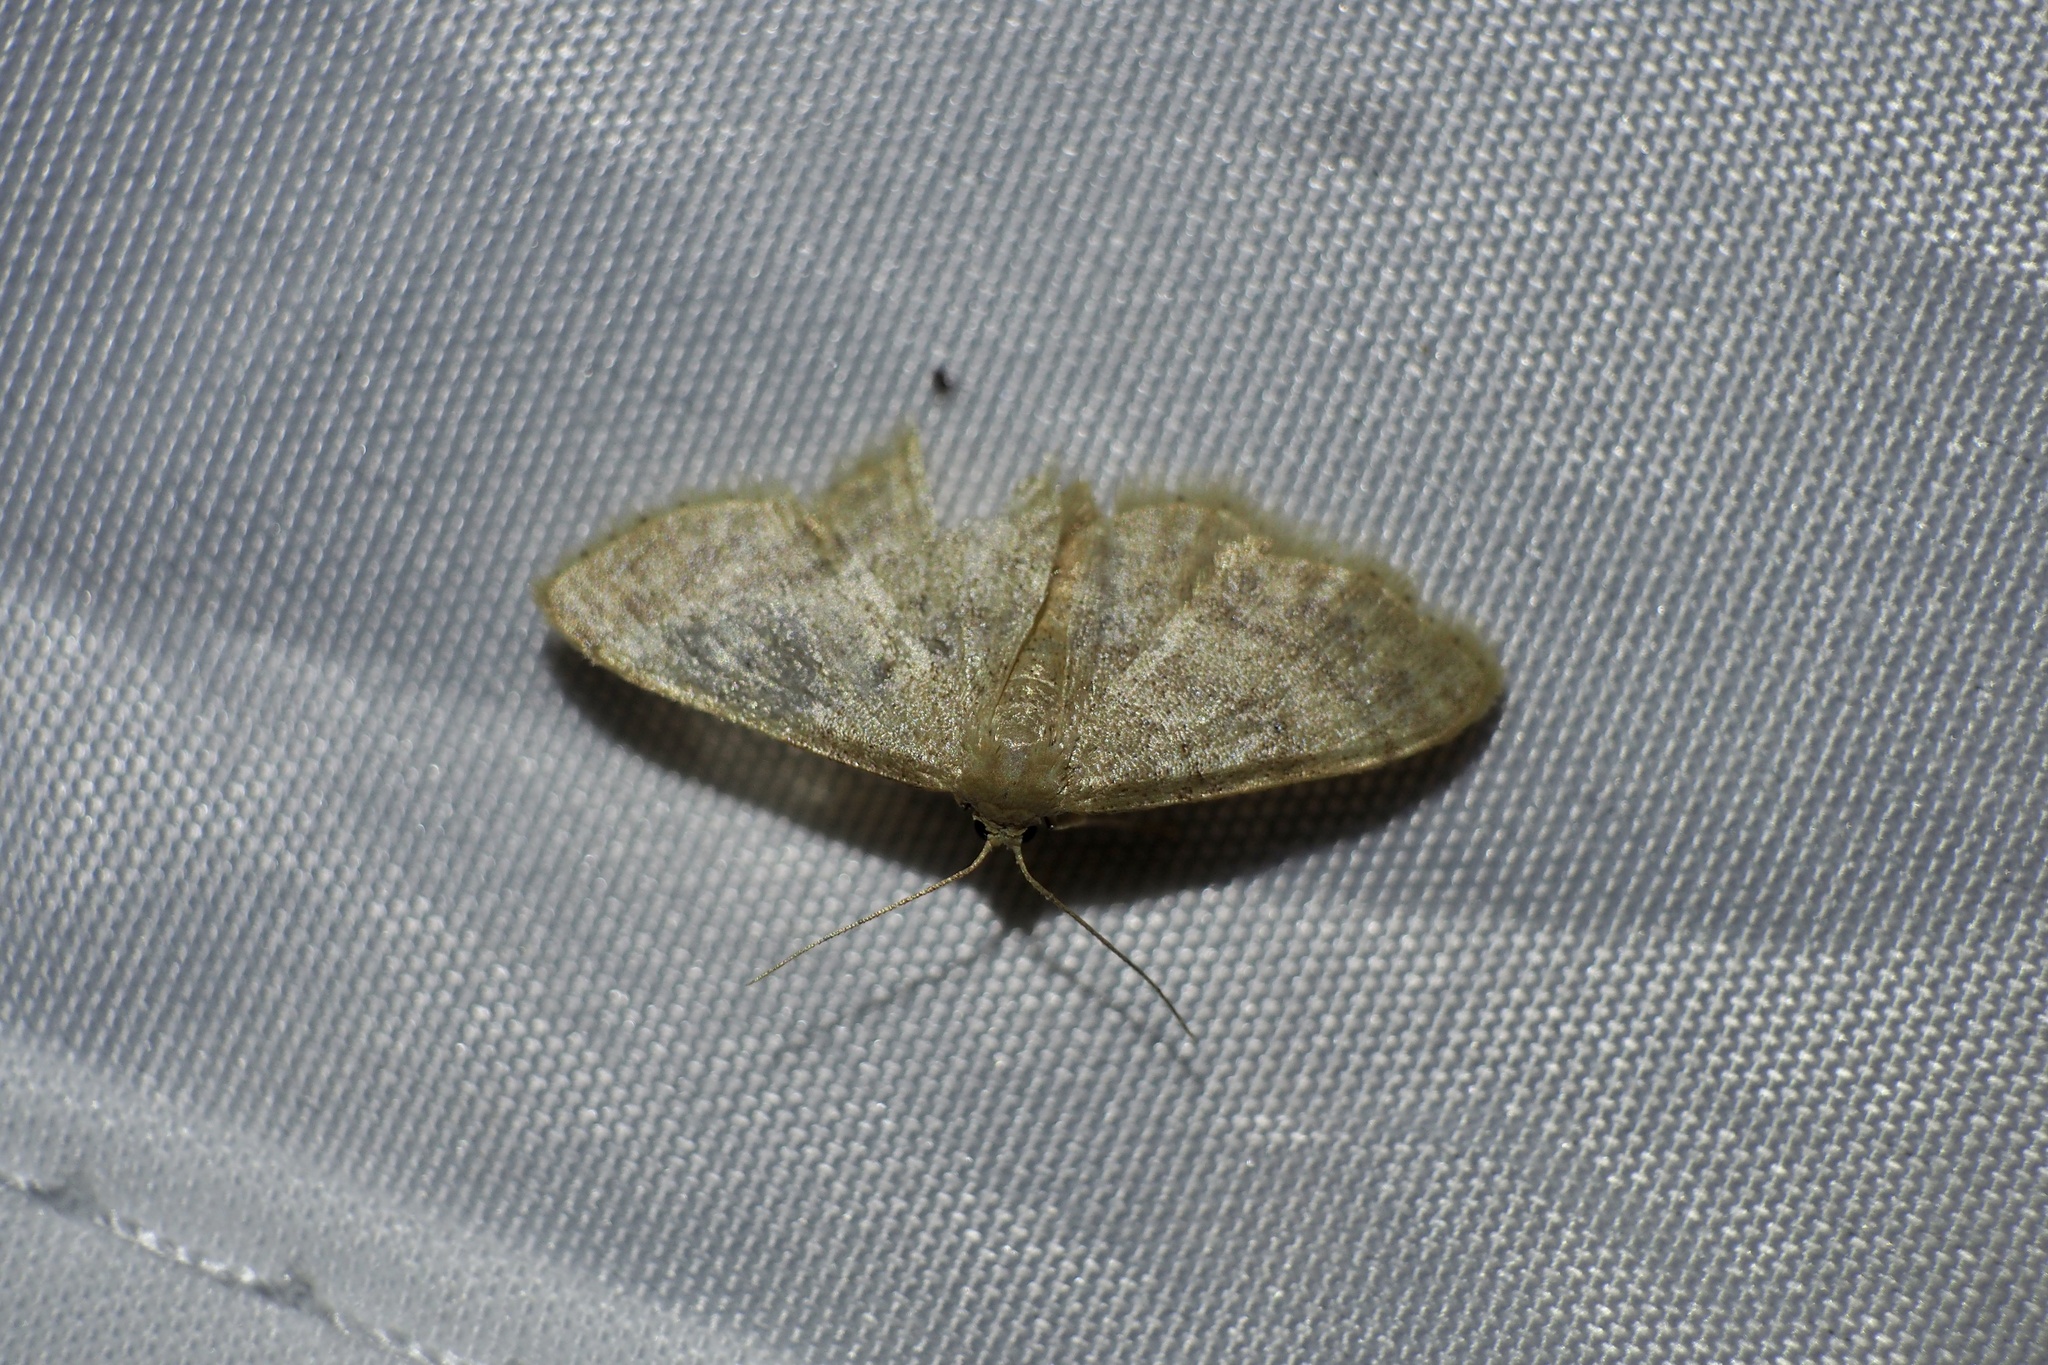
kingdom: Animalia
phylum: Arthropoda
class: Insecta
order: Lepidoptera
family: Geometridae
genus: Idaea
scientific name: Idaea biselata
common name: Small fan-footed wave
